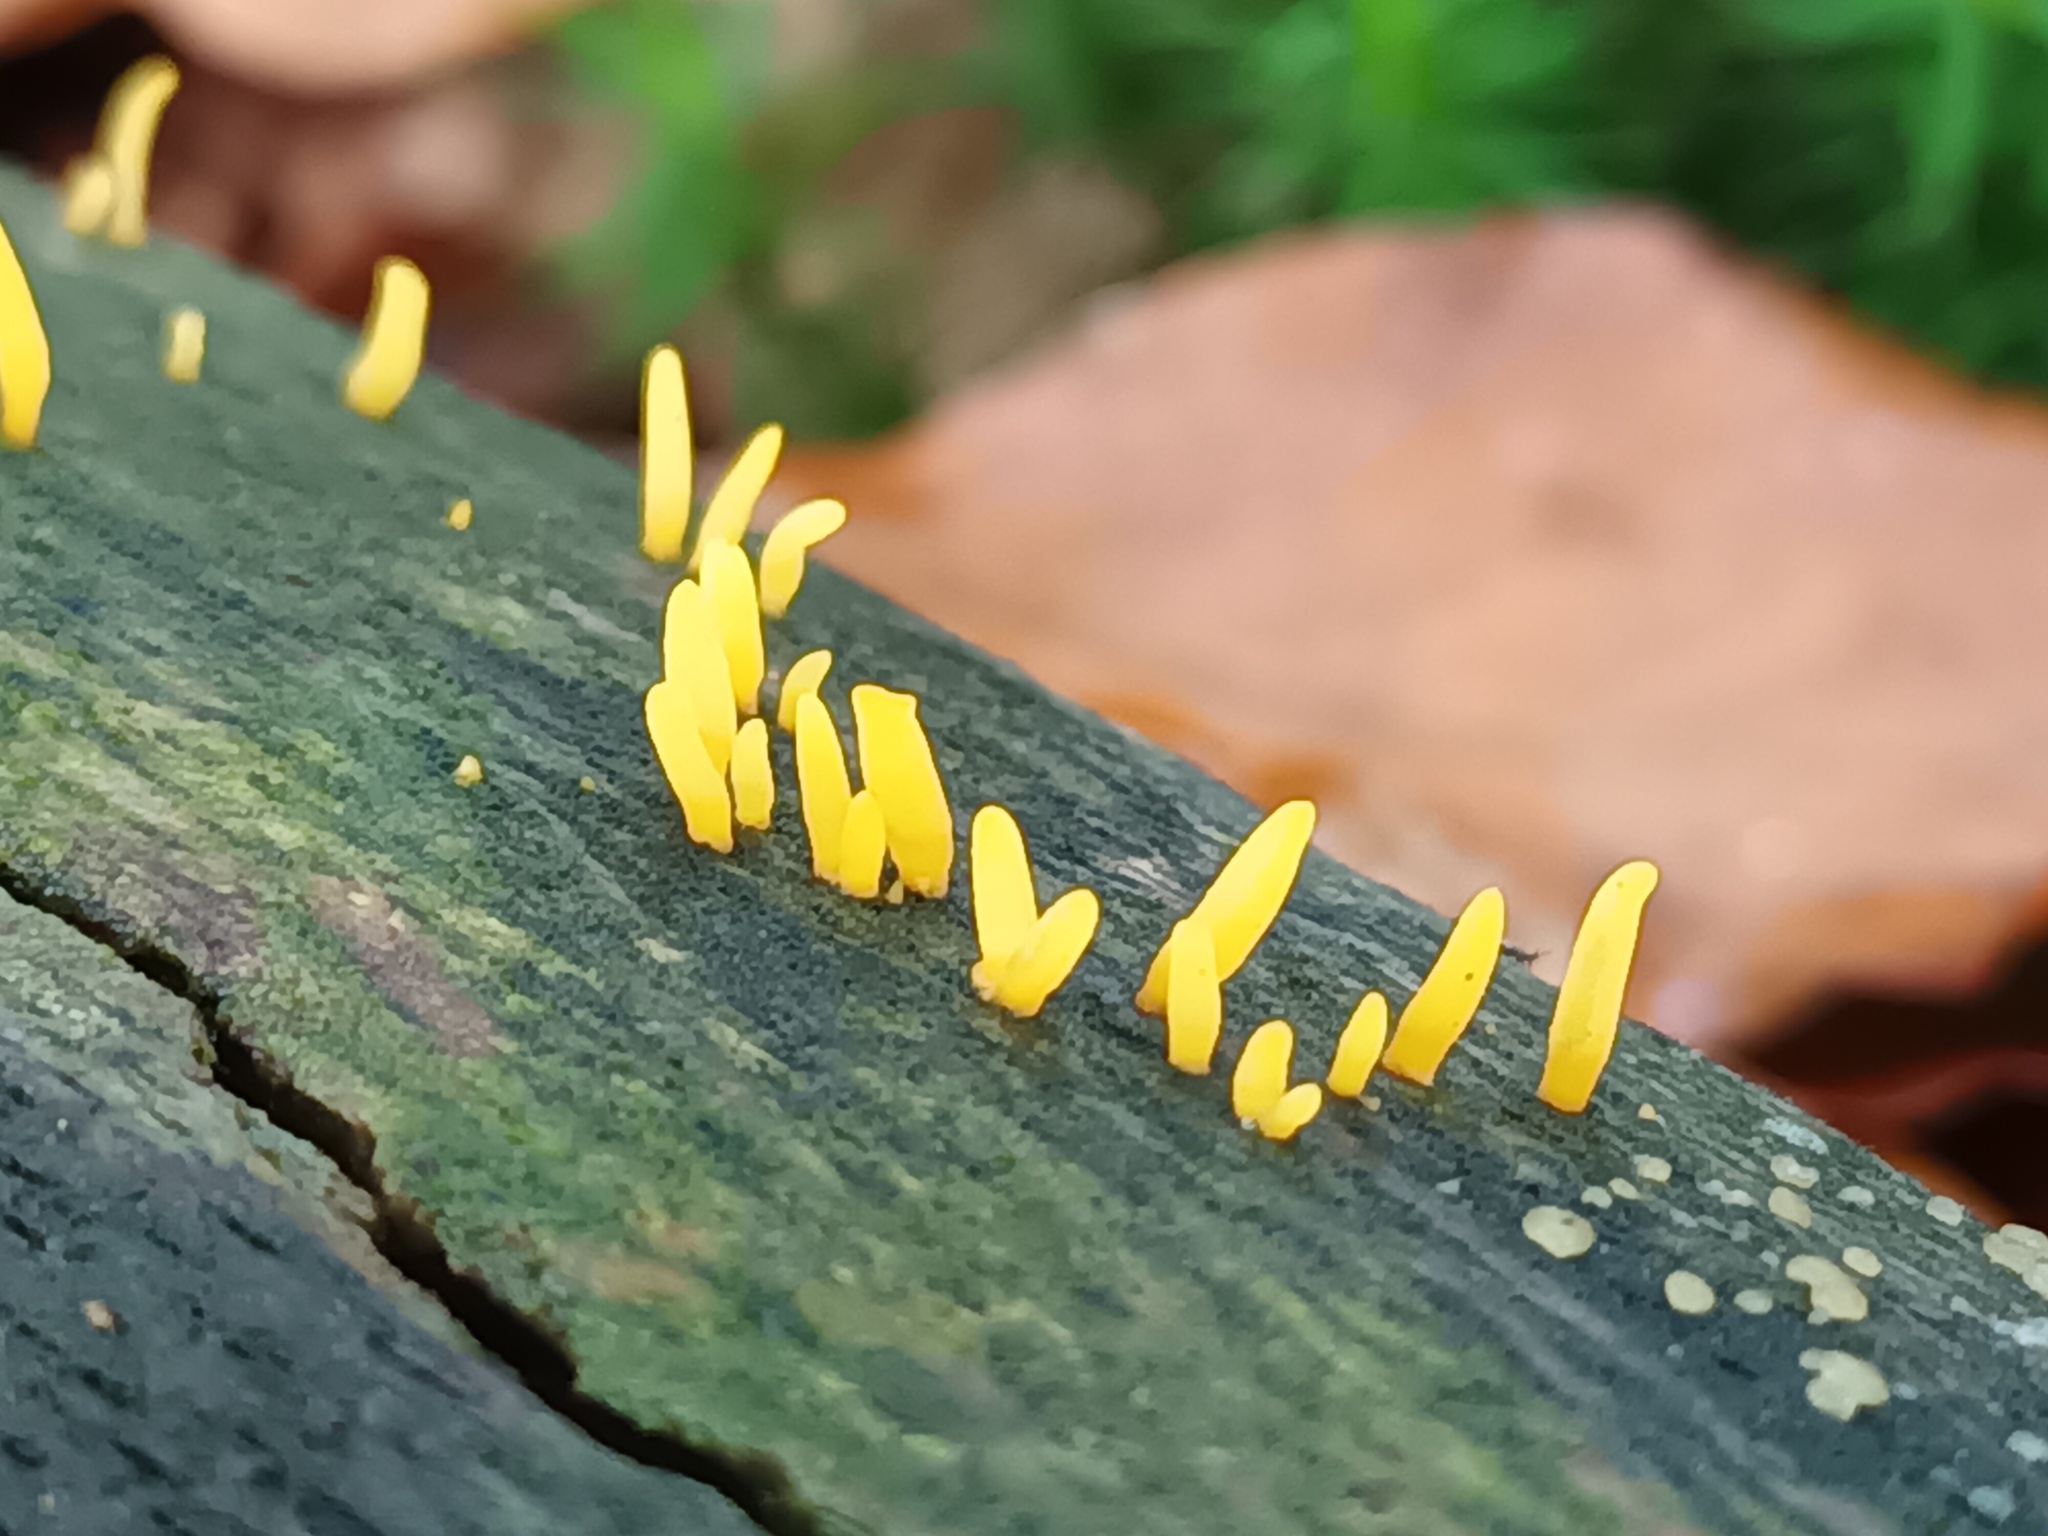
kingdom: Fungi
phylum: Basidiomycota
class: Dacrymycetes
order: Dacrymycetales
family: Dacrymycetaceae
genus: Calocera
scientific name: Calocera cornea
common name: Small stagshorn
